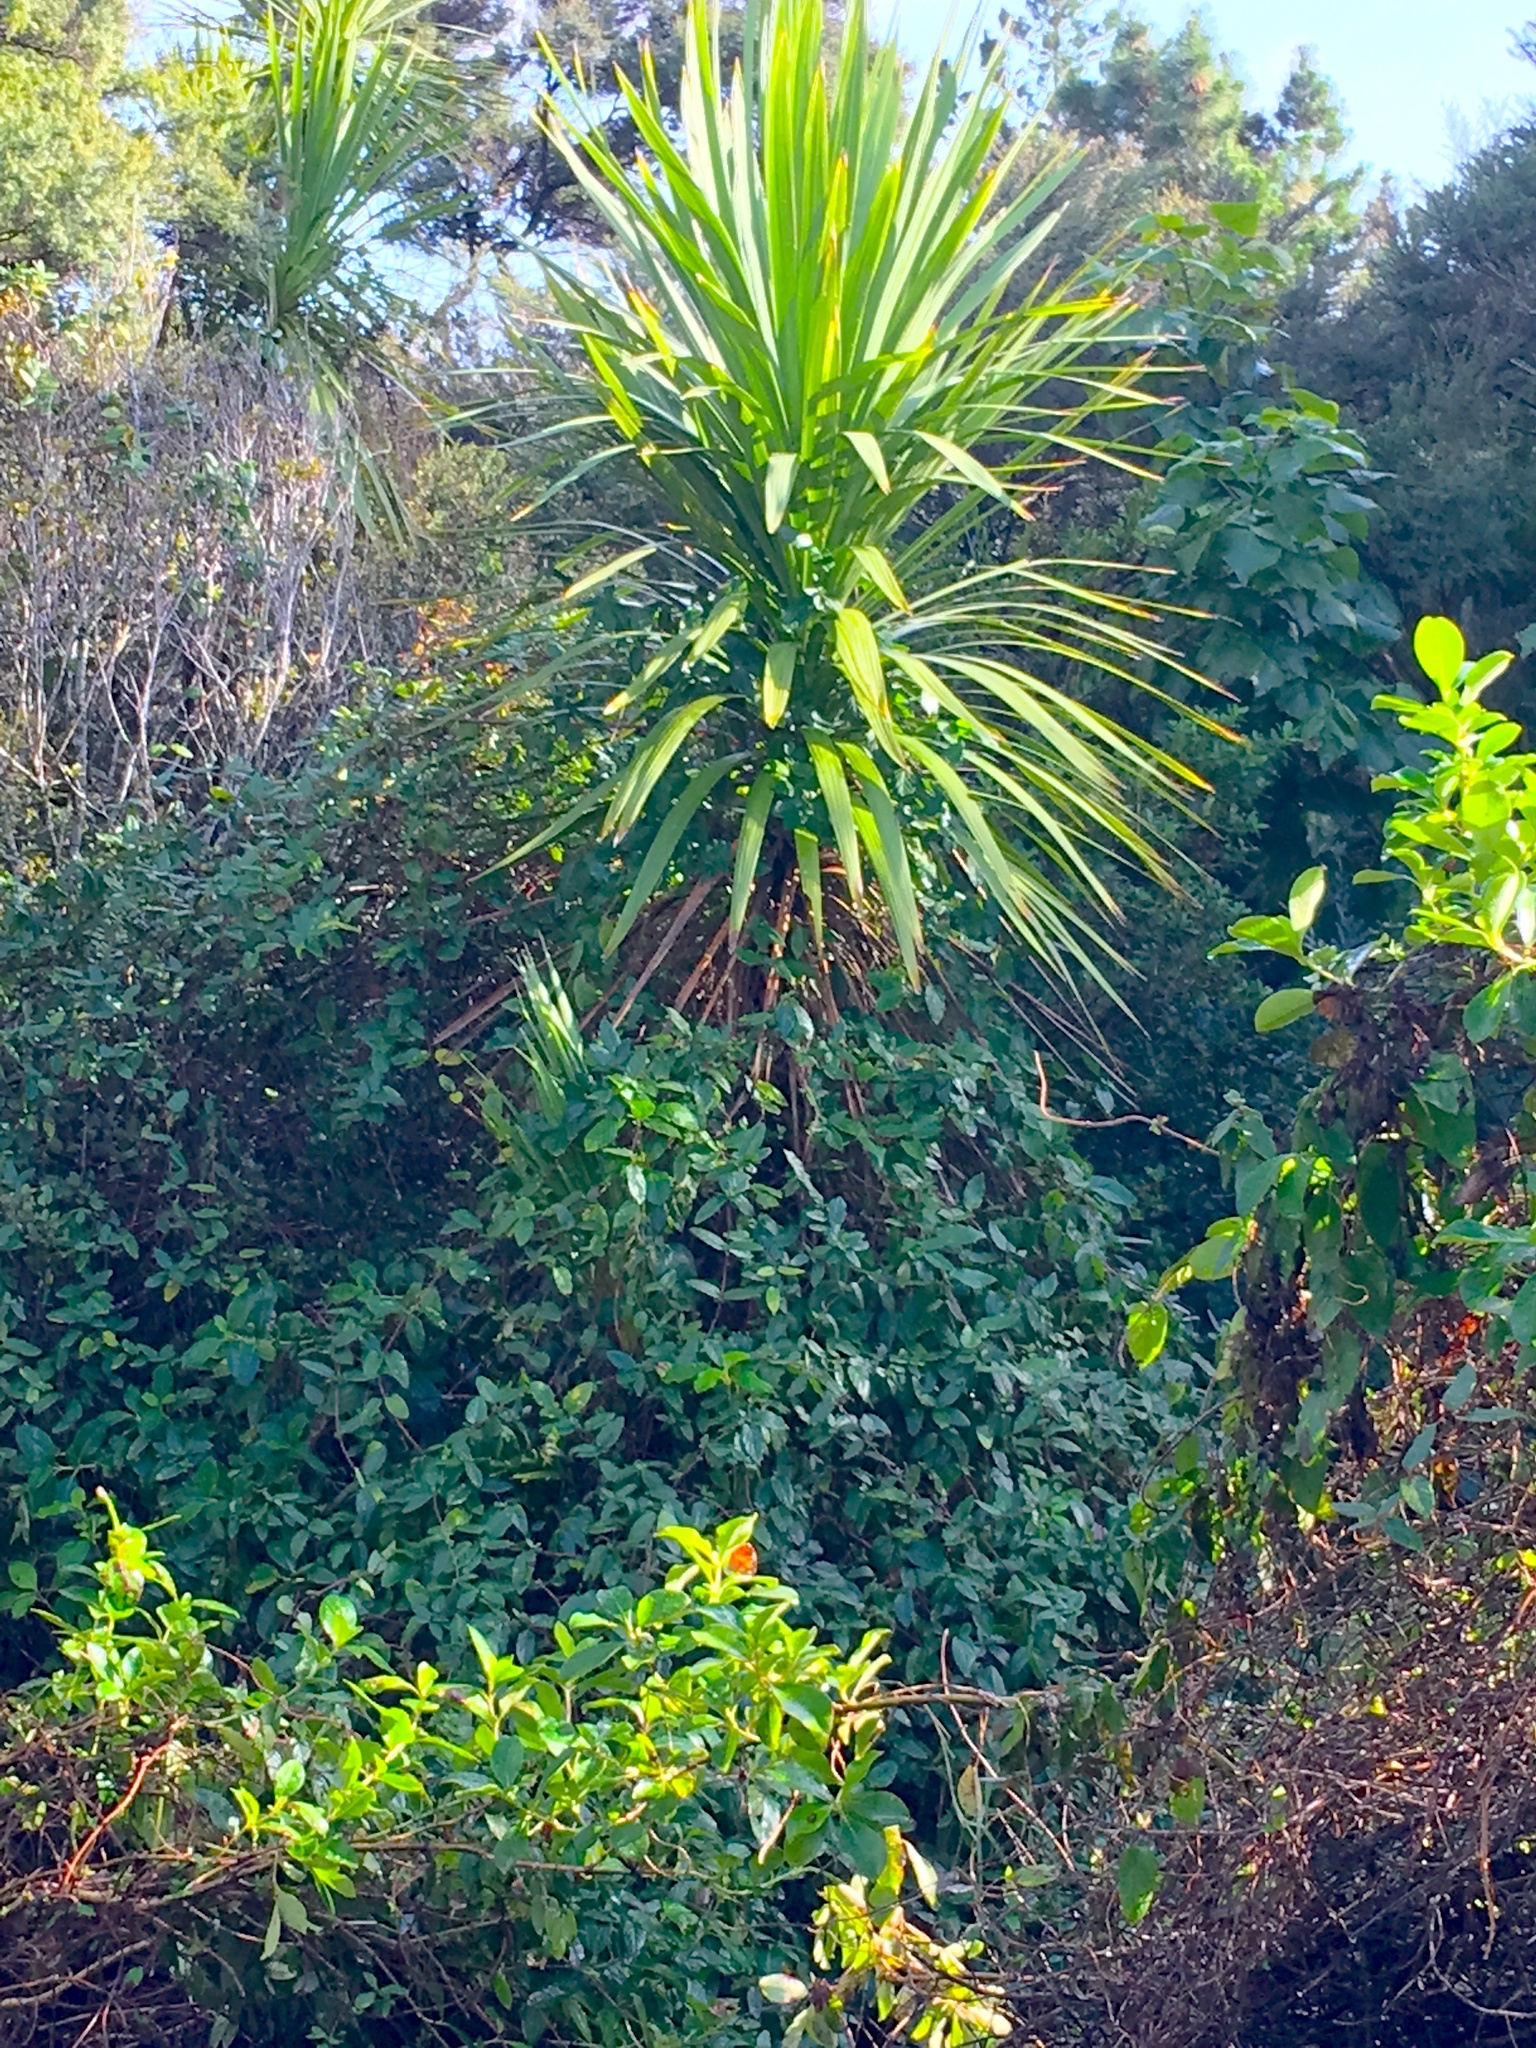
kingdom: Plantae
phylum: Tracheophyta
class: Magnoliopsida
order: Gentianales
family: Rubiaceae
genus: Coprosma
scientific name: Coprosma robusta
